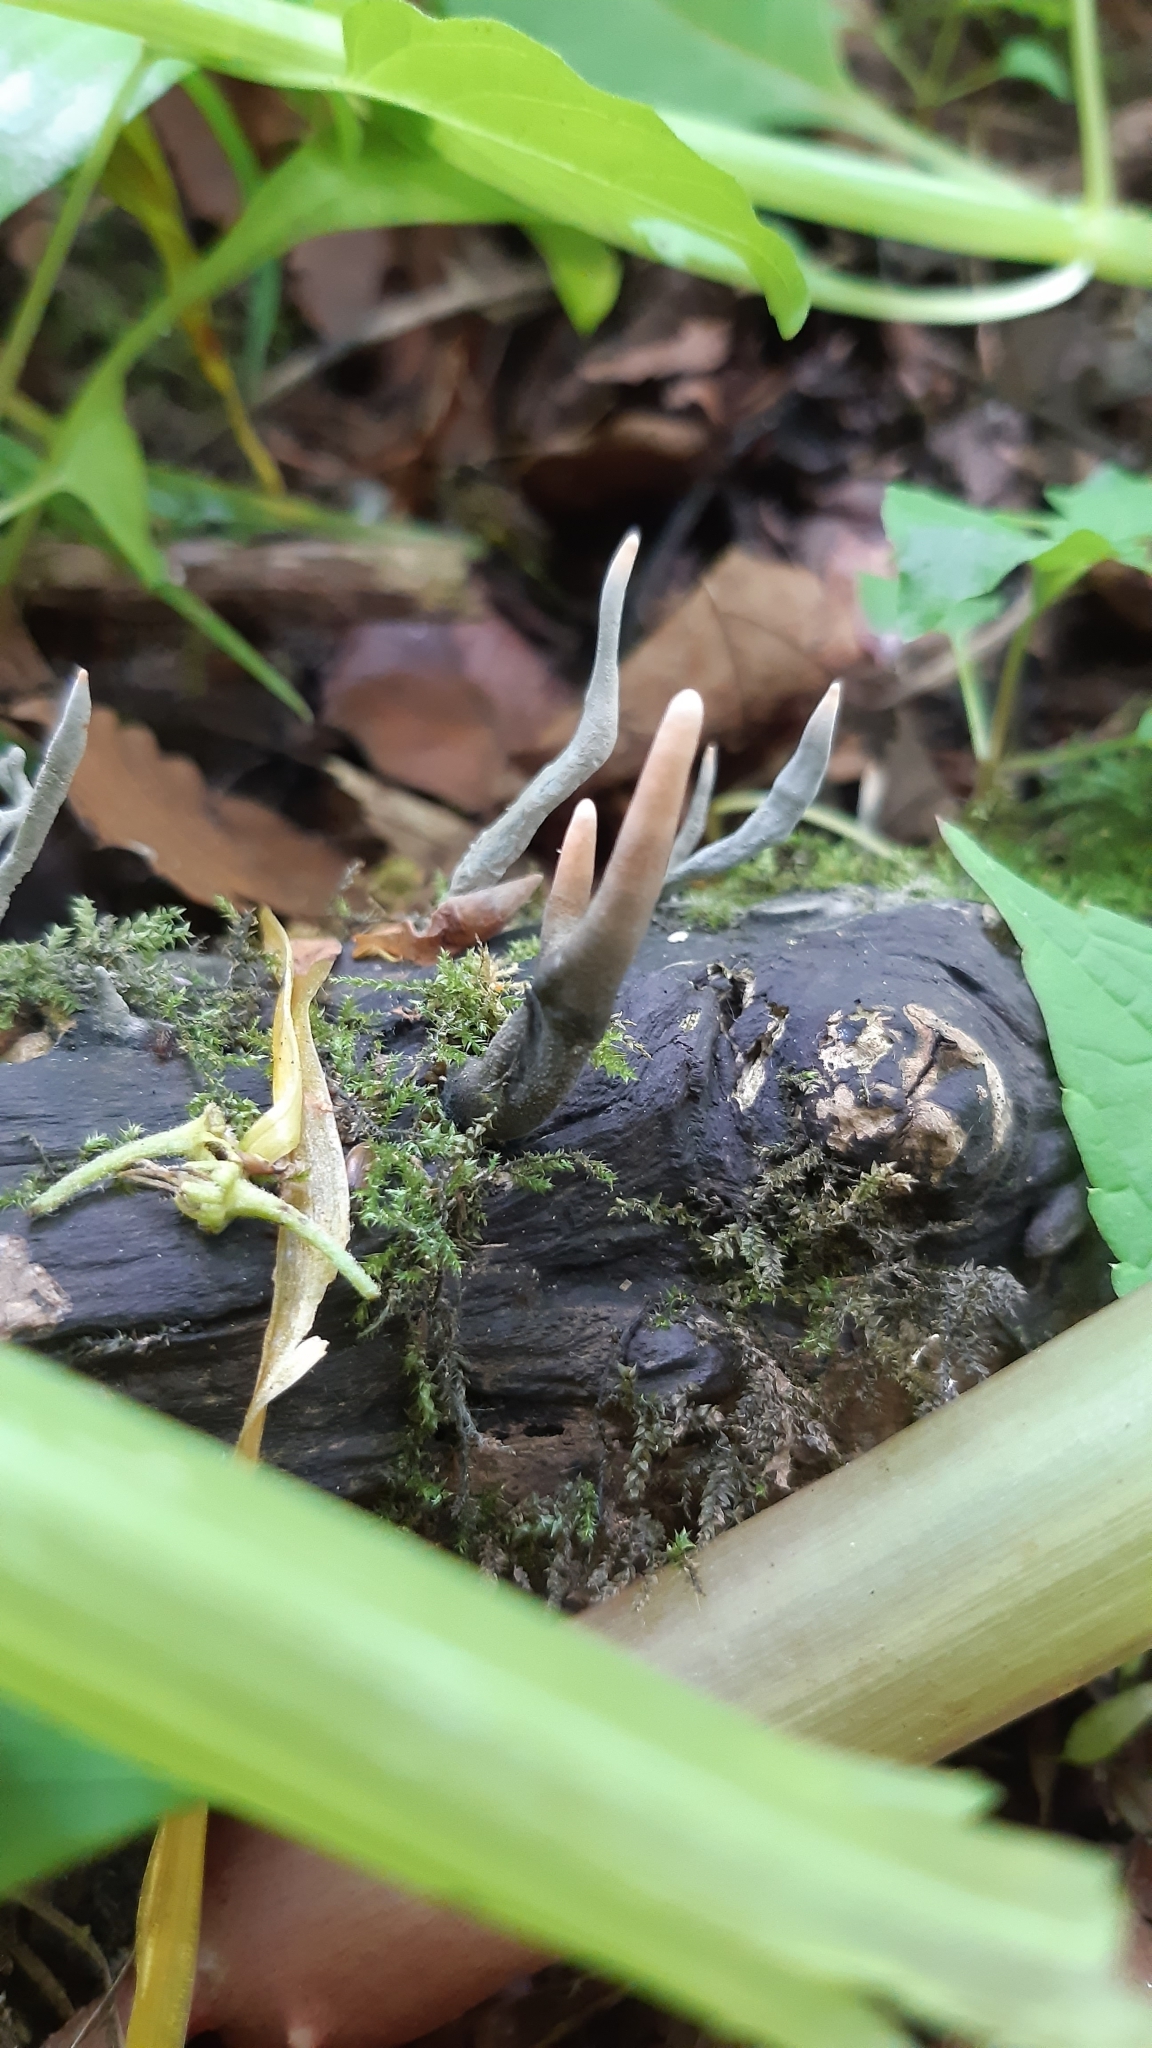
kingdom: Fungi
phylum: Ascomycota
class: Sordariomycetes
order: Xylariales
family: Xylariaceae
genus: Xylaria
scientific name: Xylaria hypoxylon
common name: Candle-snuff fungus
